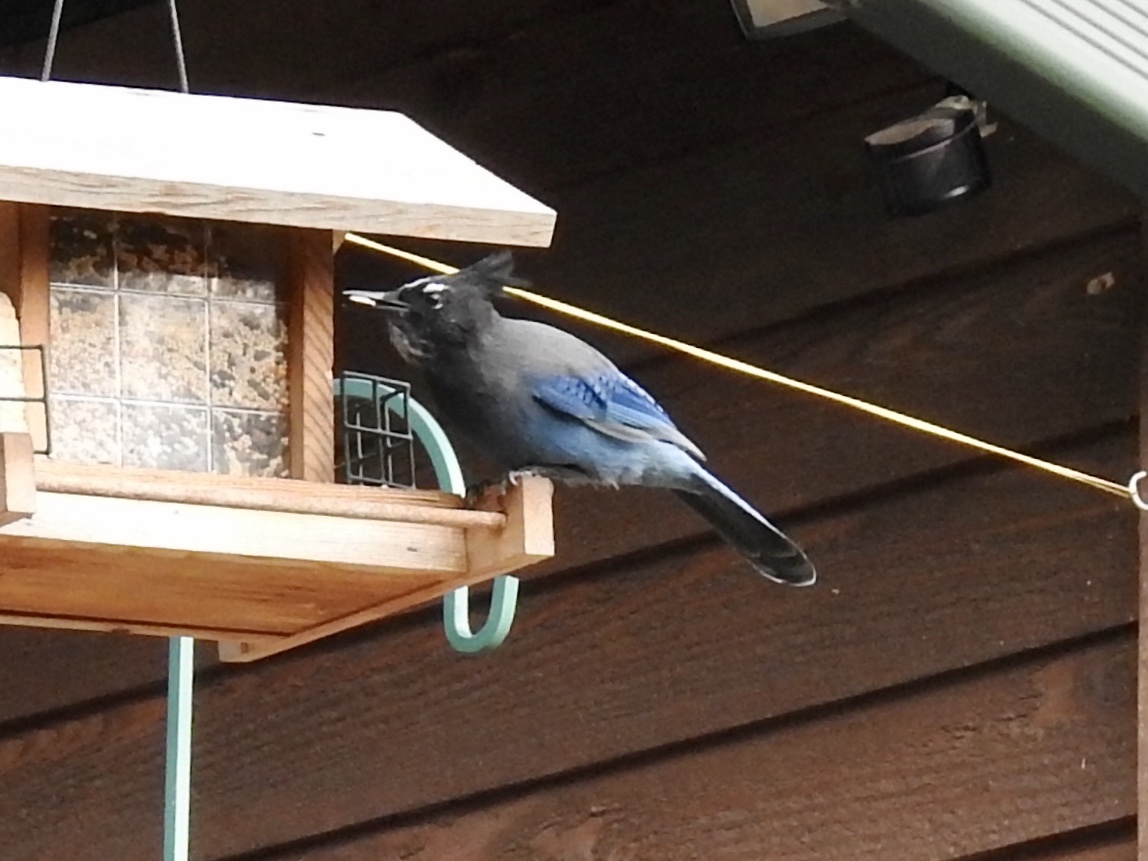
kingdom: Animalia
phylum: Chordata
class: Aves
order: Passeriformes
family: Corvidae
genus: Cyanocitta
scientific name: Cyanocitta stelleri
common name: Steller's jay
